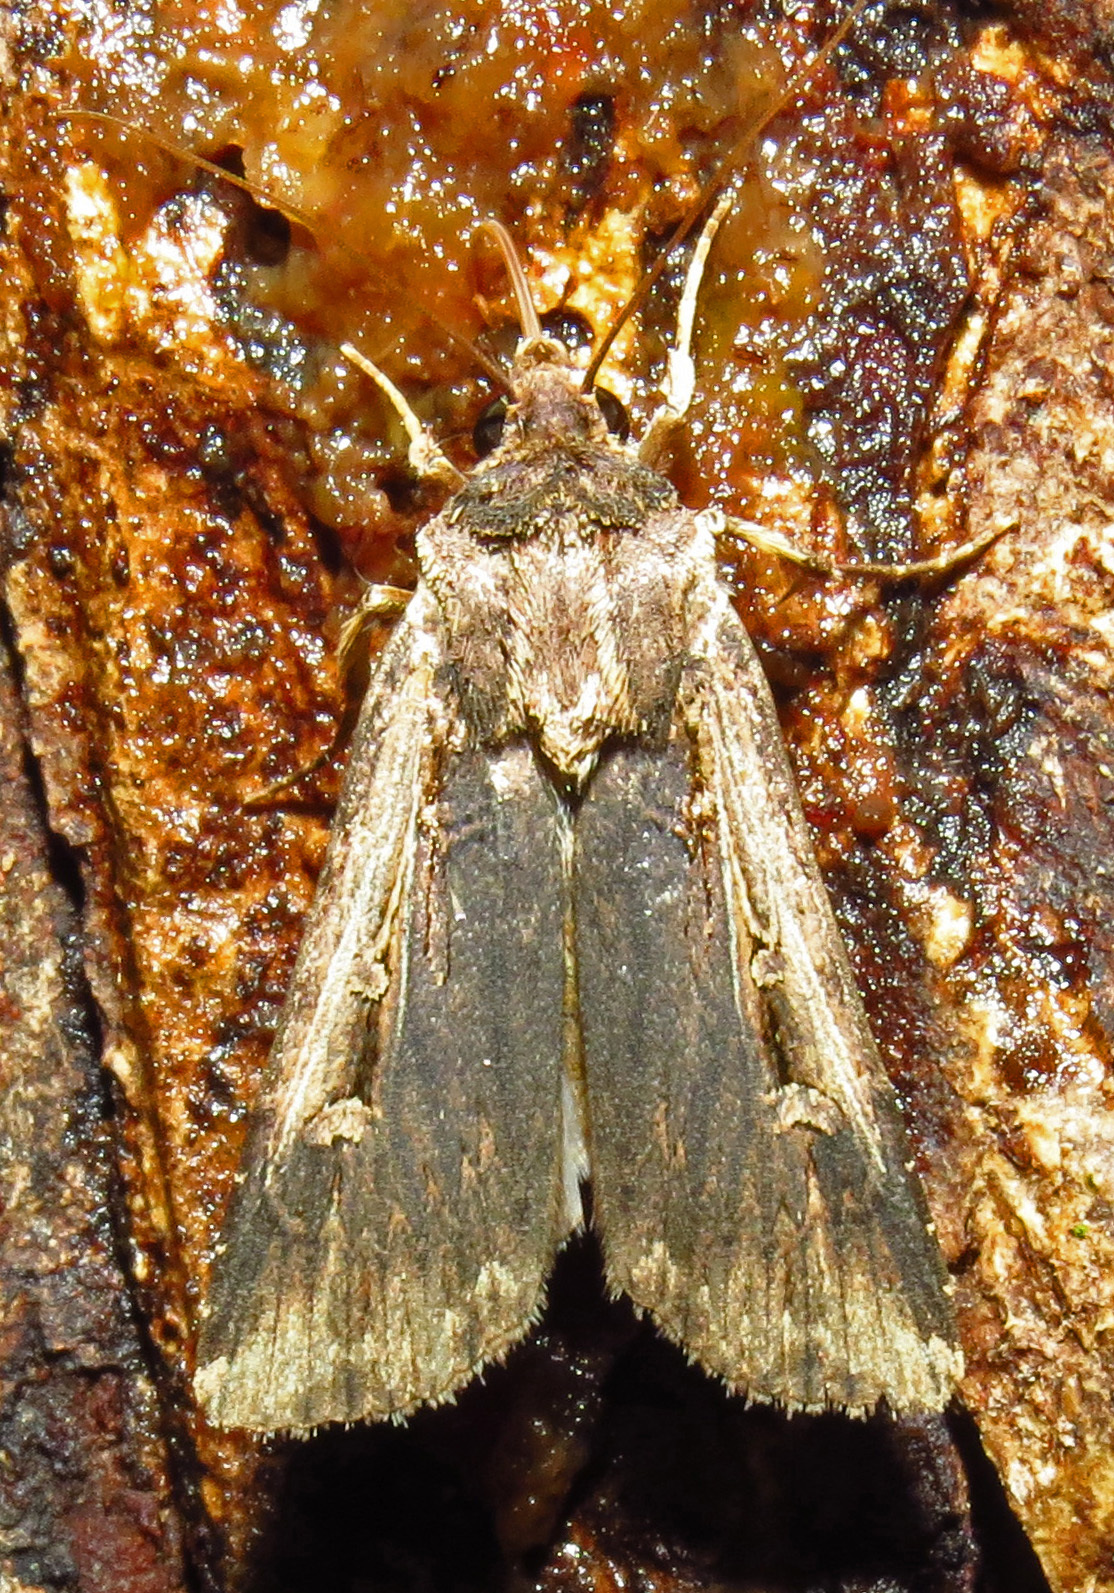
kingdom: Animalia
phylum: Arthropoda
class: Insecta
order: Lepidoptera
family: Noctuidae
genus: Feltia
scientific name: Feltia subterranea
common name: Granulate cutworm
